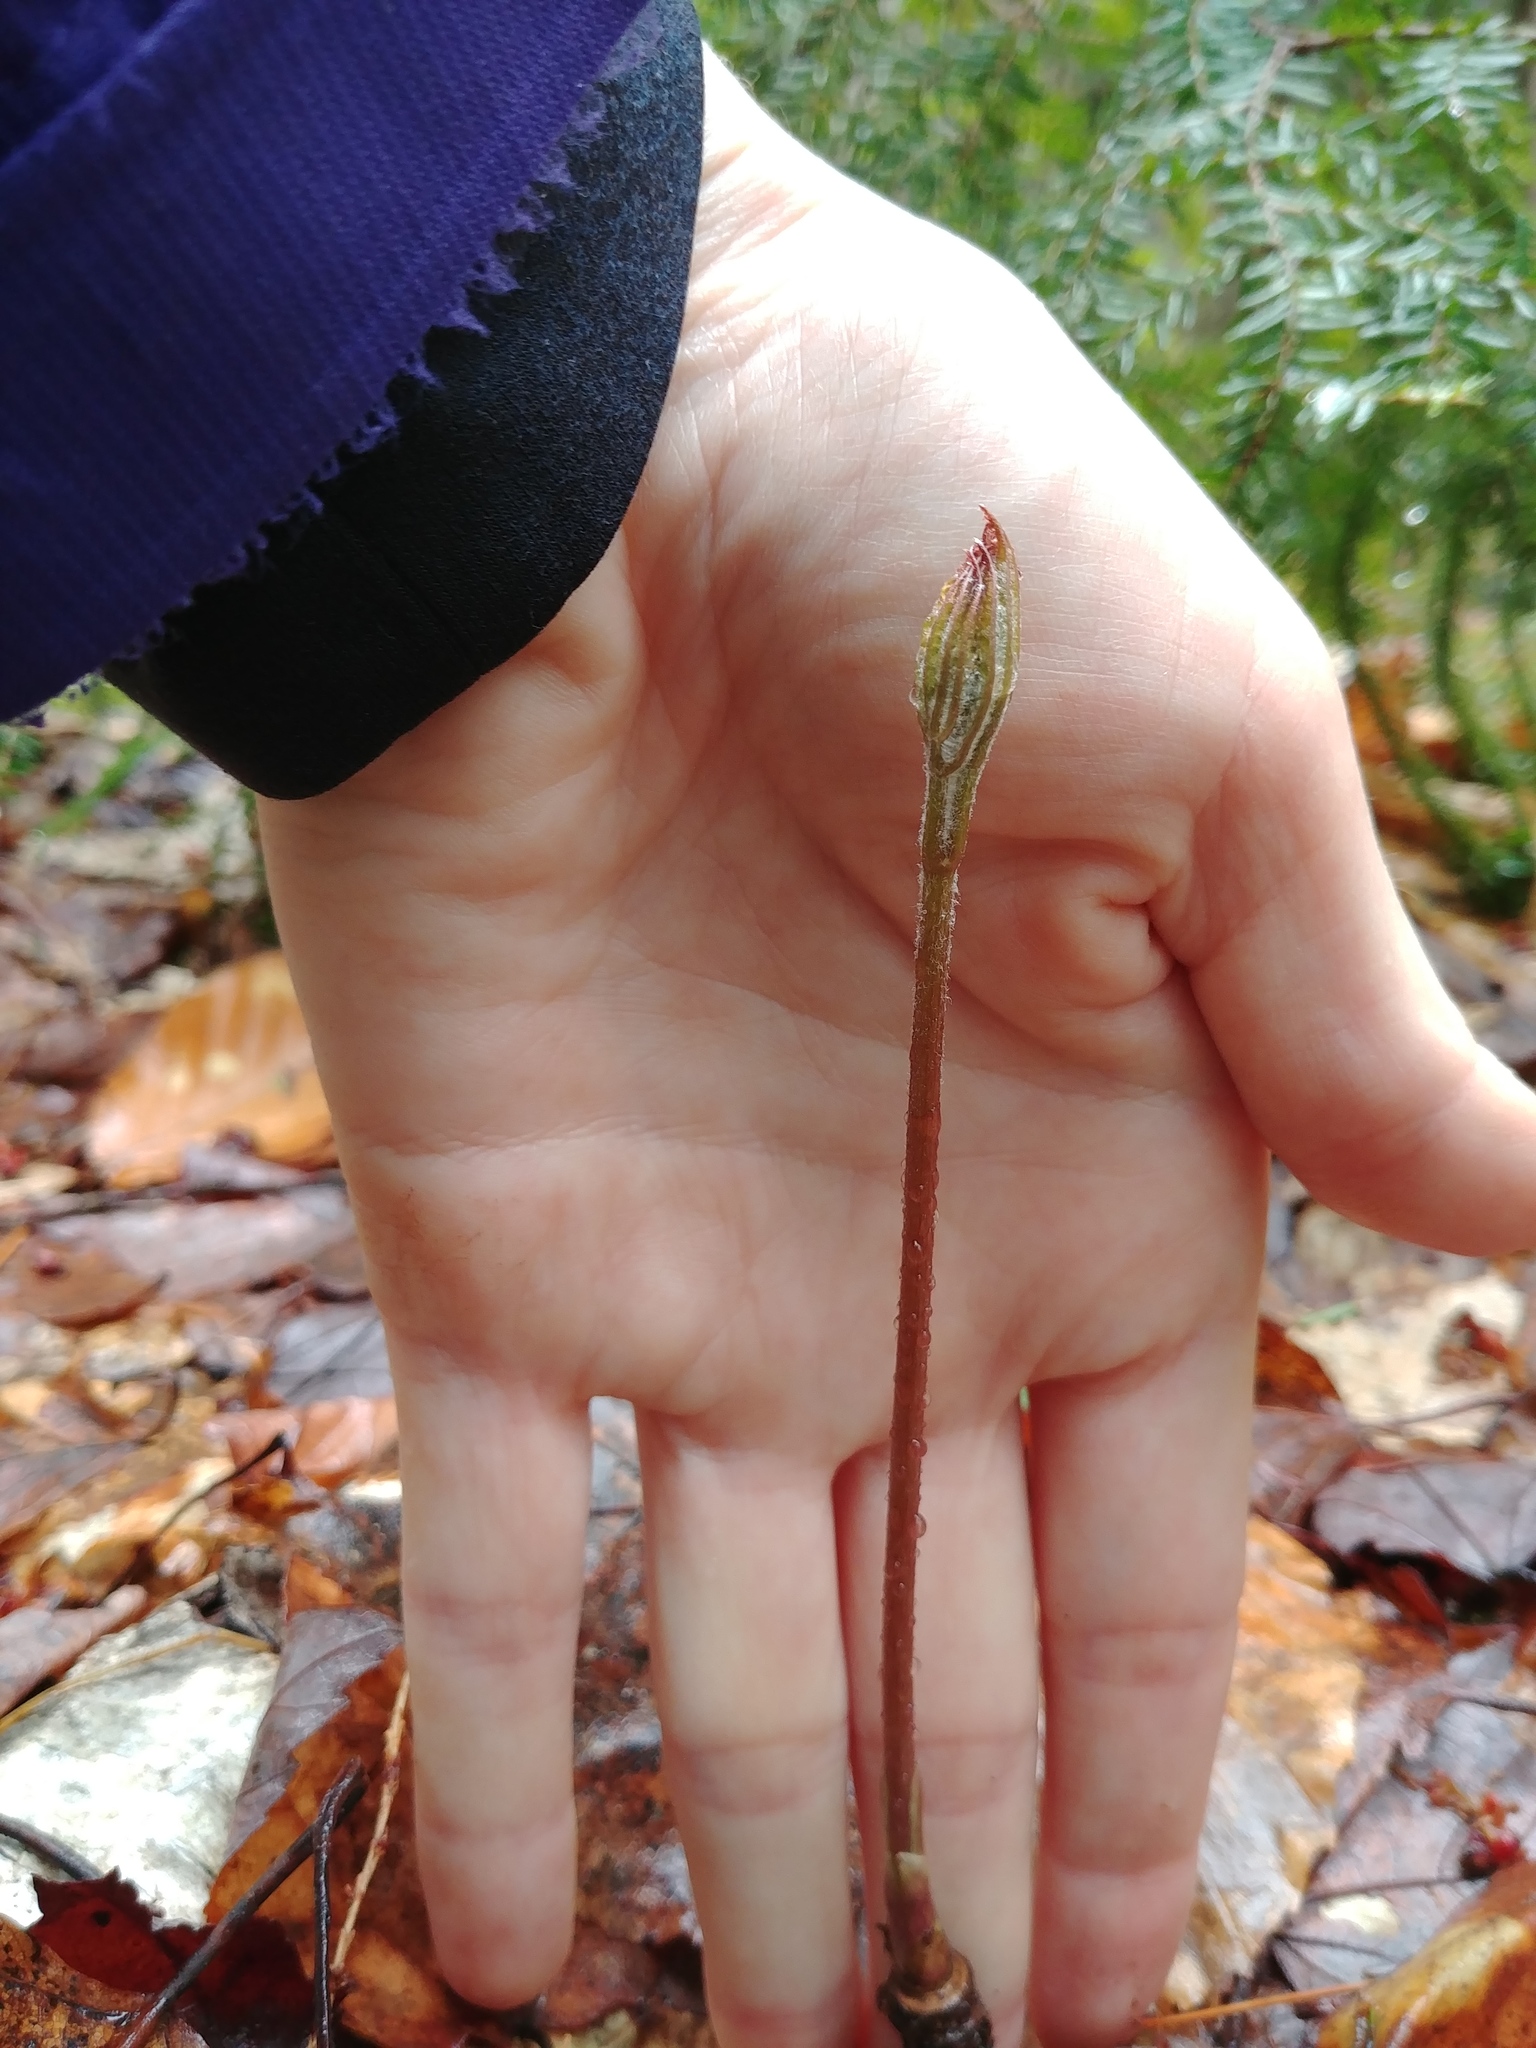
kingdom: Plantae
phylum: Tracheophyta
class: Magnoliopsida
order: Apiales
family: Araliaceae
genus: Aralia
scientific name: Aralia nudicaulis
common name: Wild sarsaparilla
